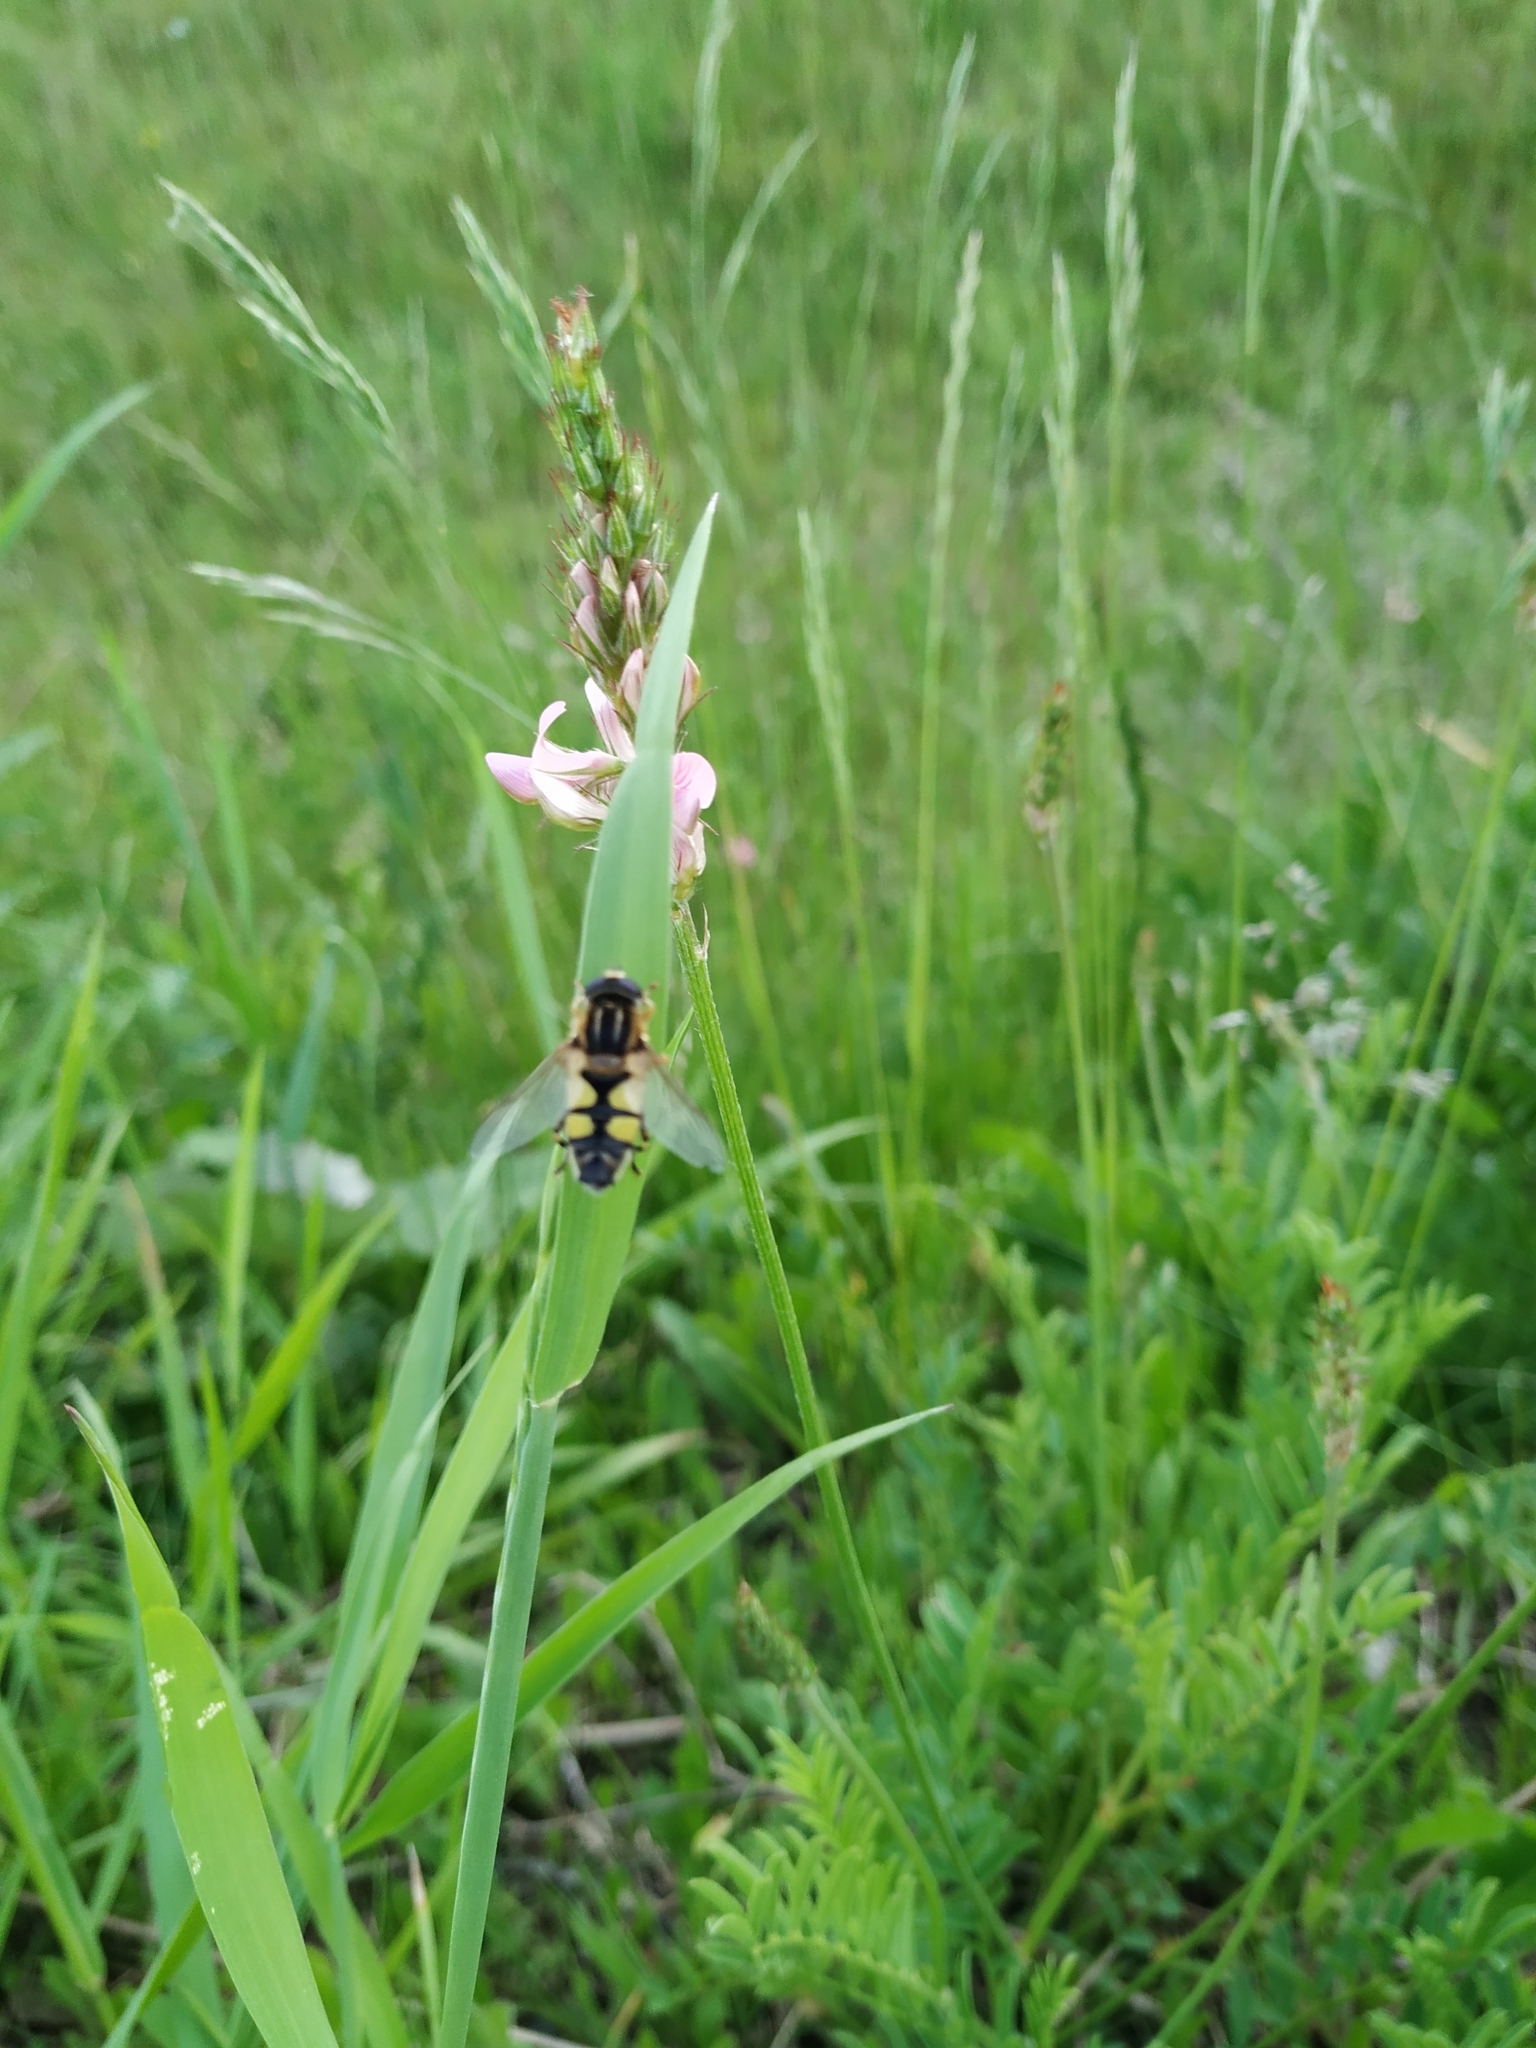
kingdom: Animalia
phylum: Arthropoda
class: Insecta
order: Diptera
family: Syrphidae
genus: Helophilus
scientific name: Helophilus trivittatus
